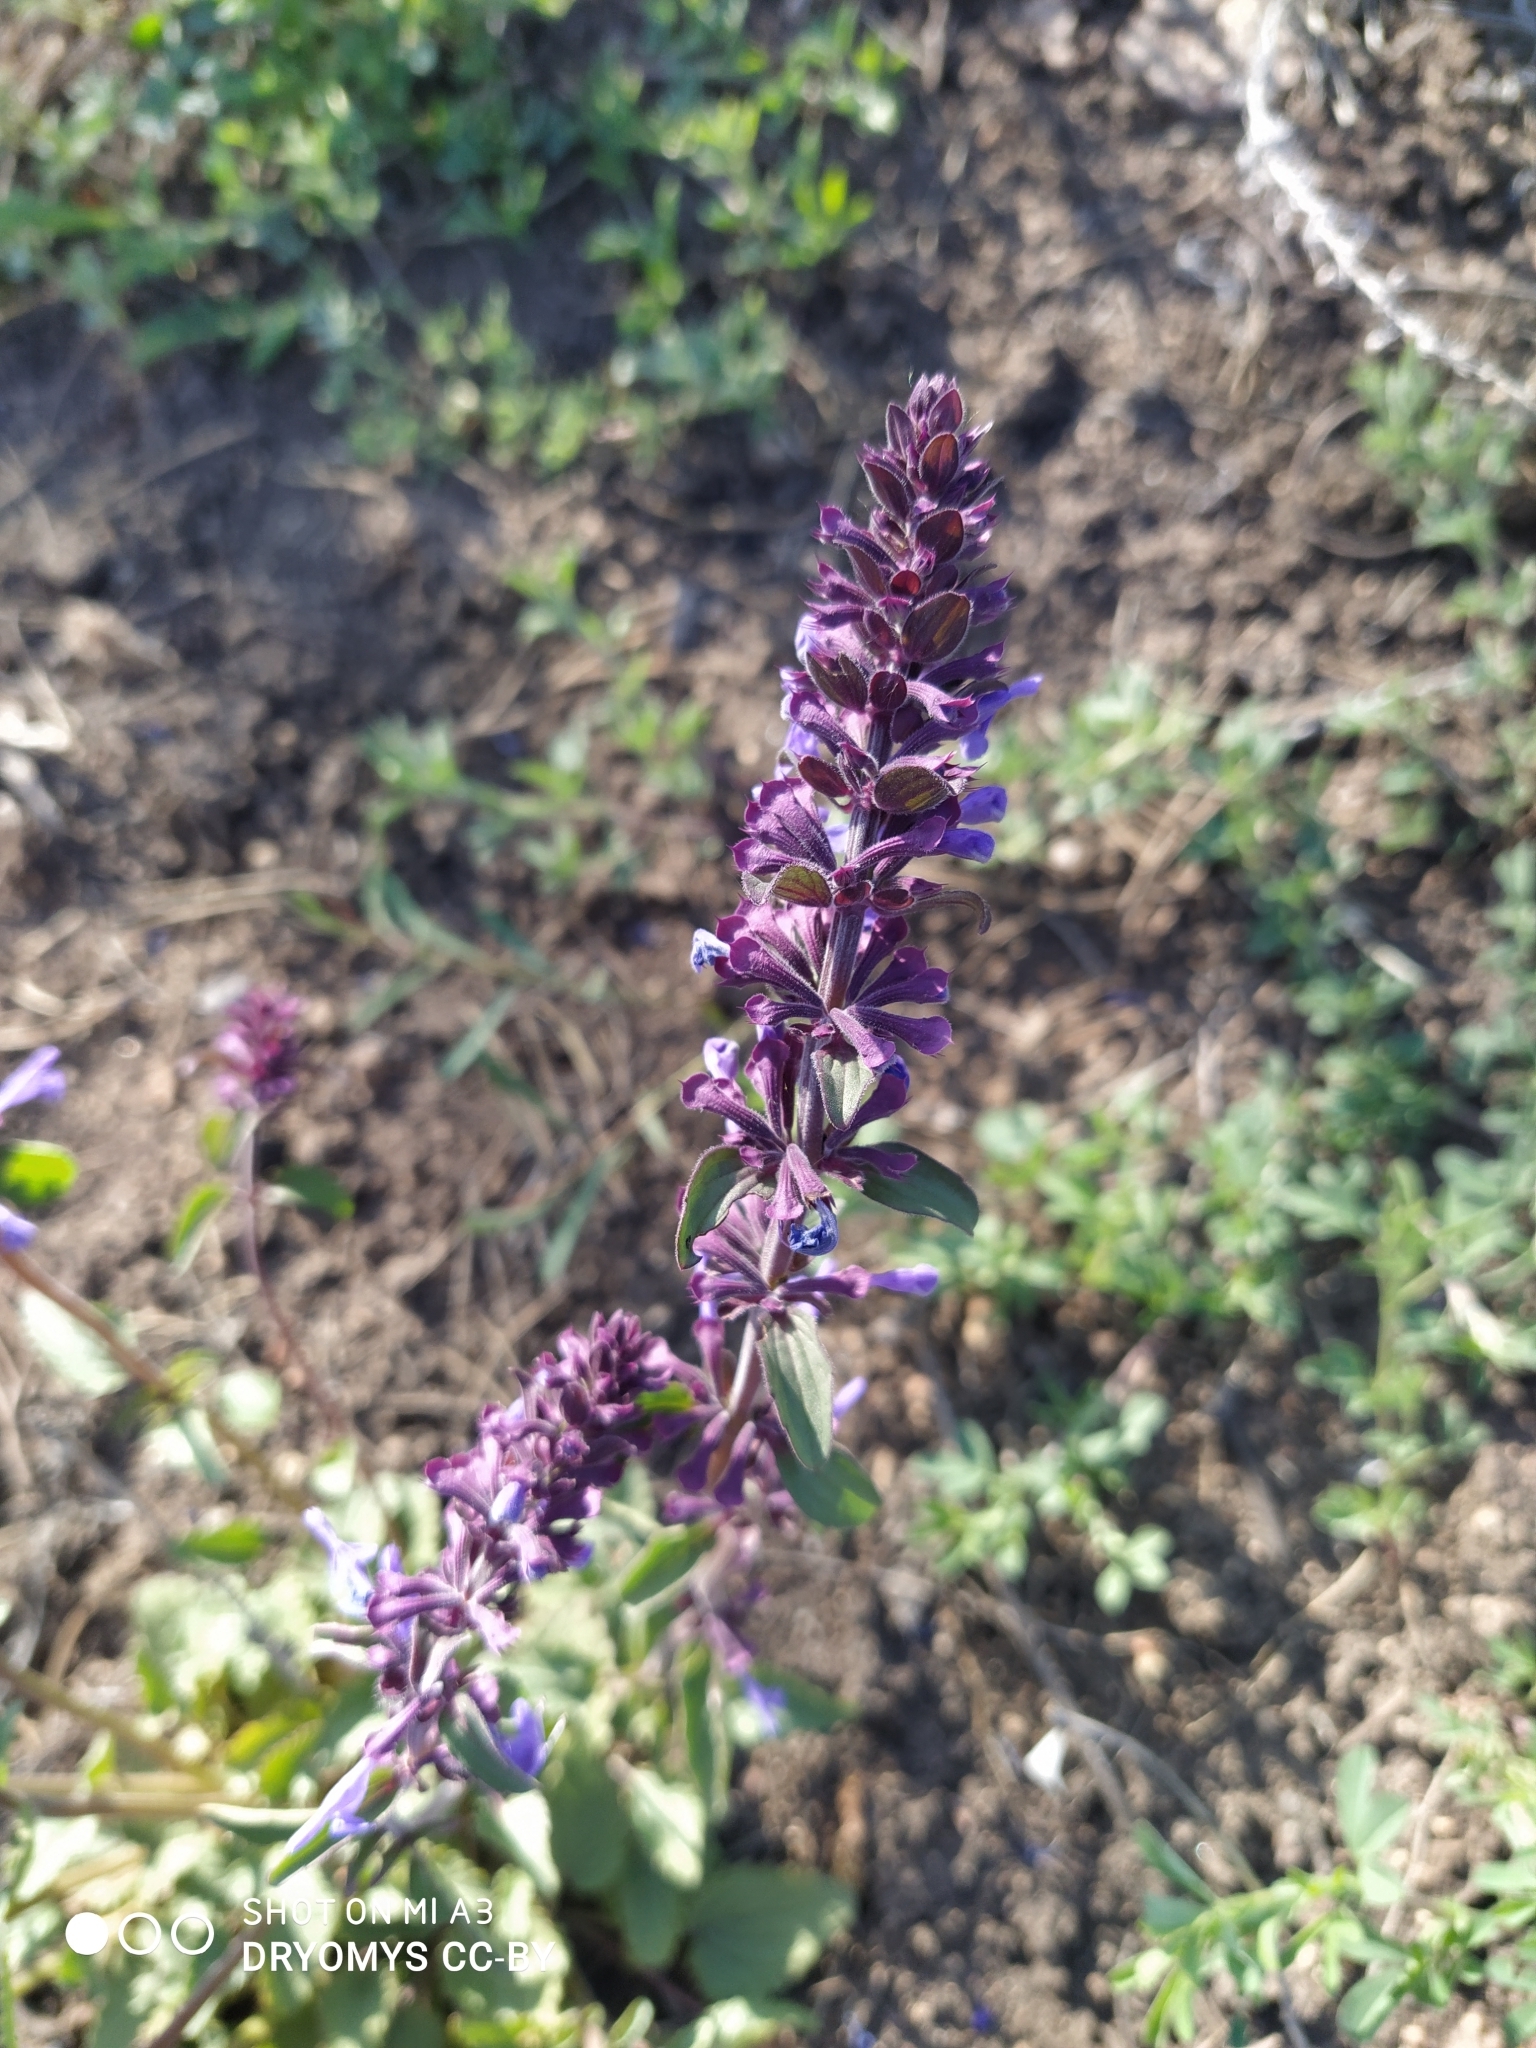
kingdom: Plantae
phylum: Tracheophyta
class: Magnoliopsida
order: Lamiales
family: Lamiaceae
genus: Dracocephalum
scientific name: Dracocephalum nutans
